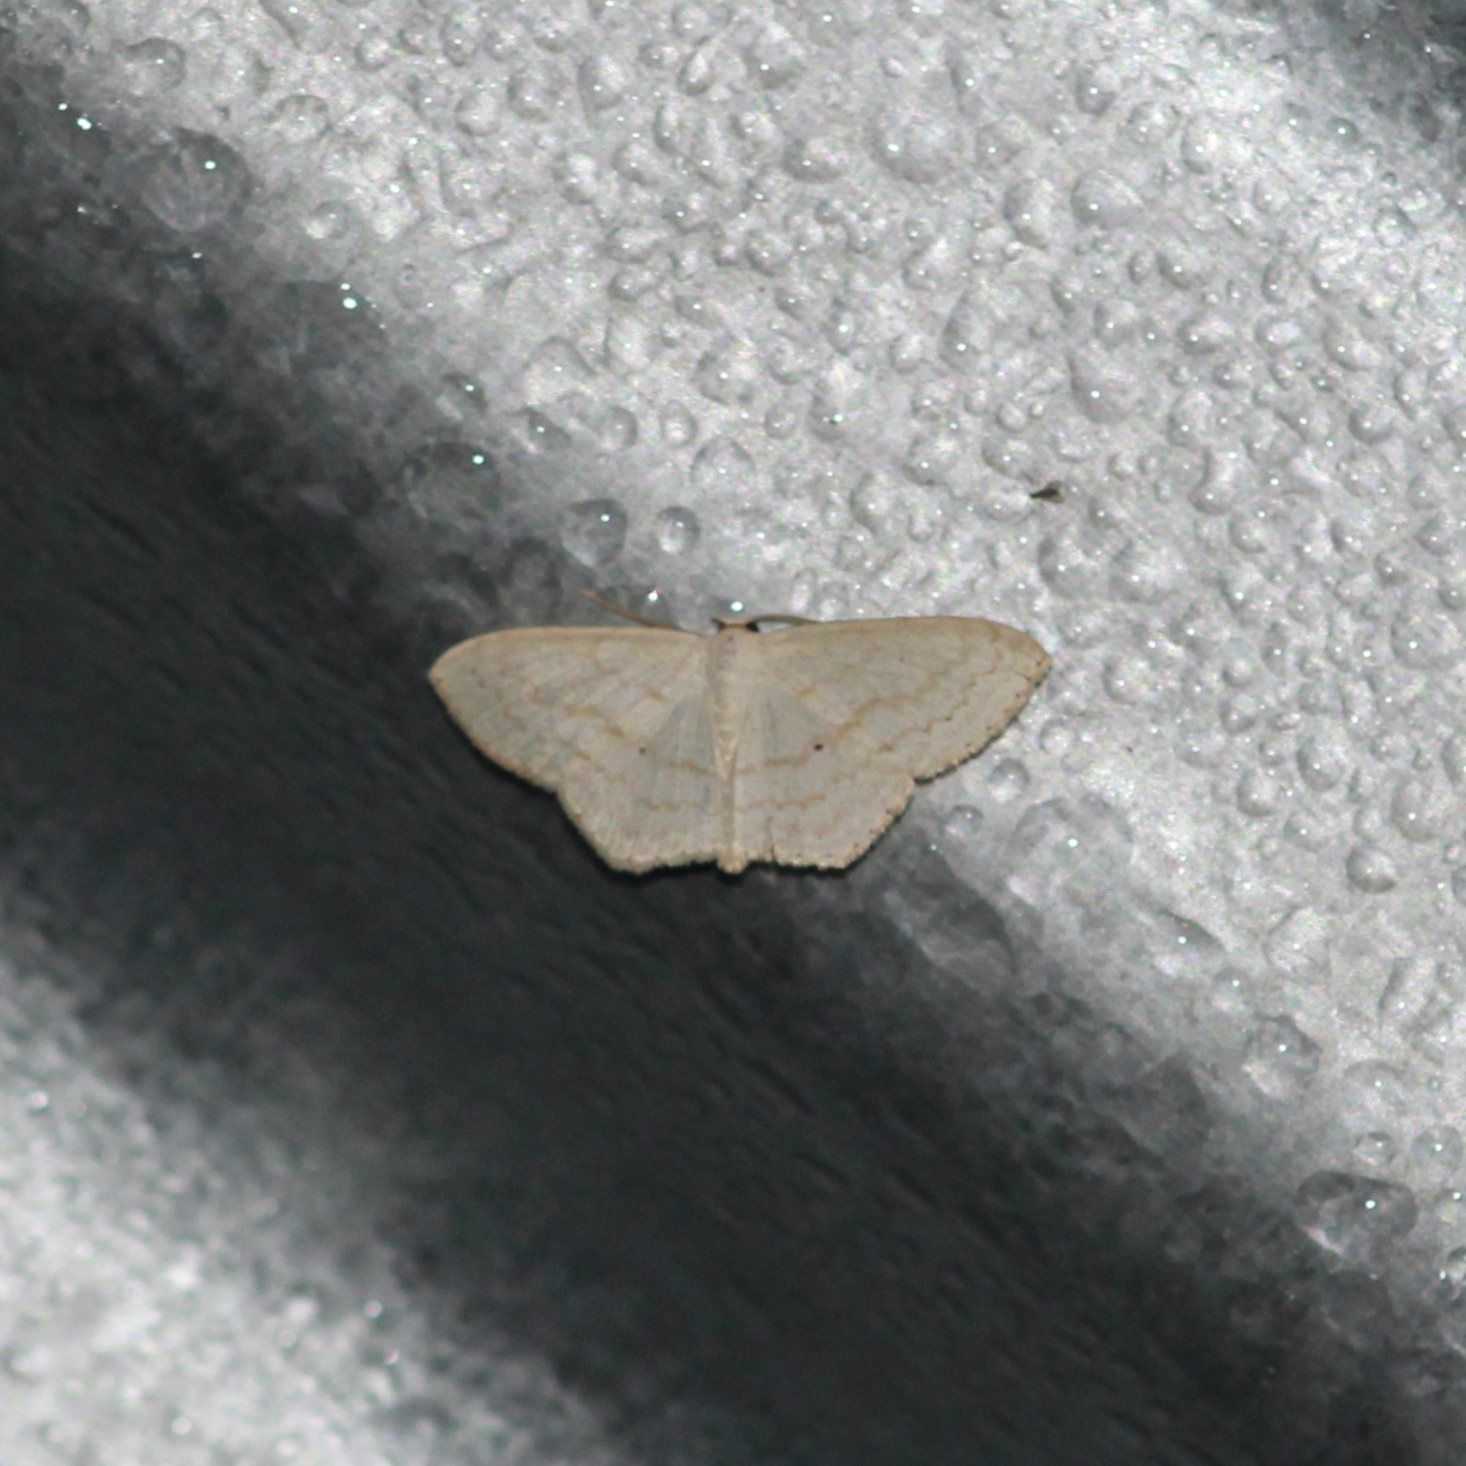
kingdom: Animalia
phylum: Arthropoda
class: Insecta
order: Lepidoptera
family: Geometridae
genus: Scopula
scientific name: Scopula asopiata
